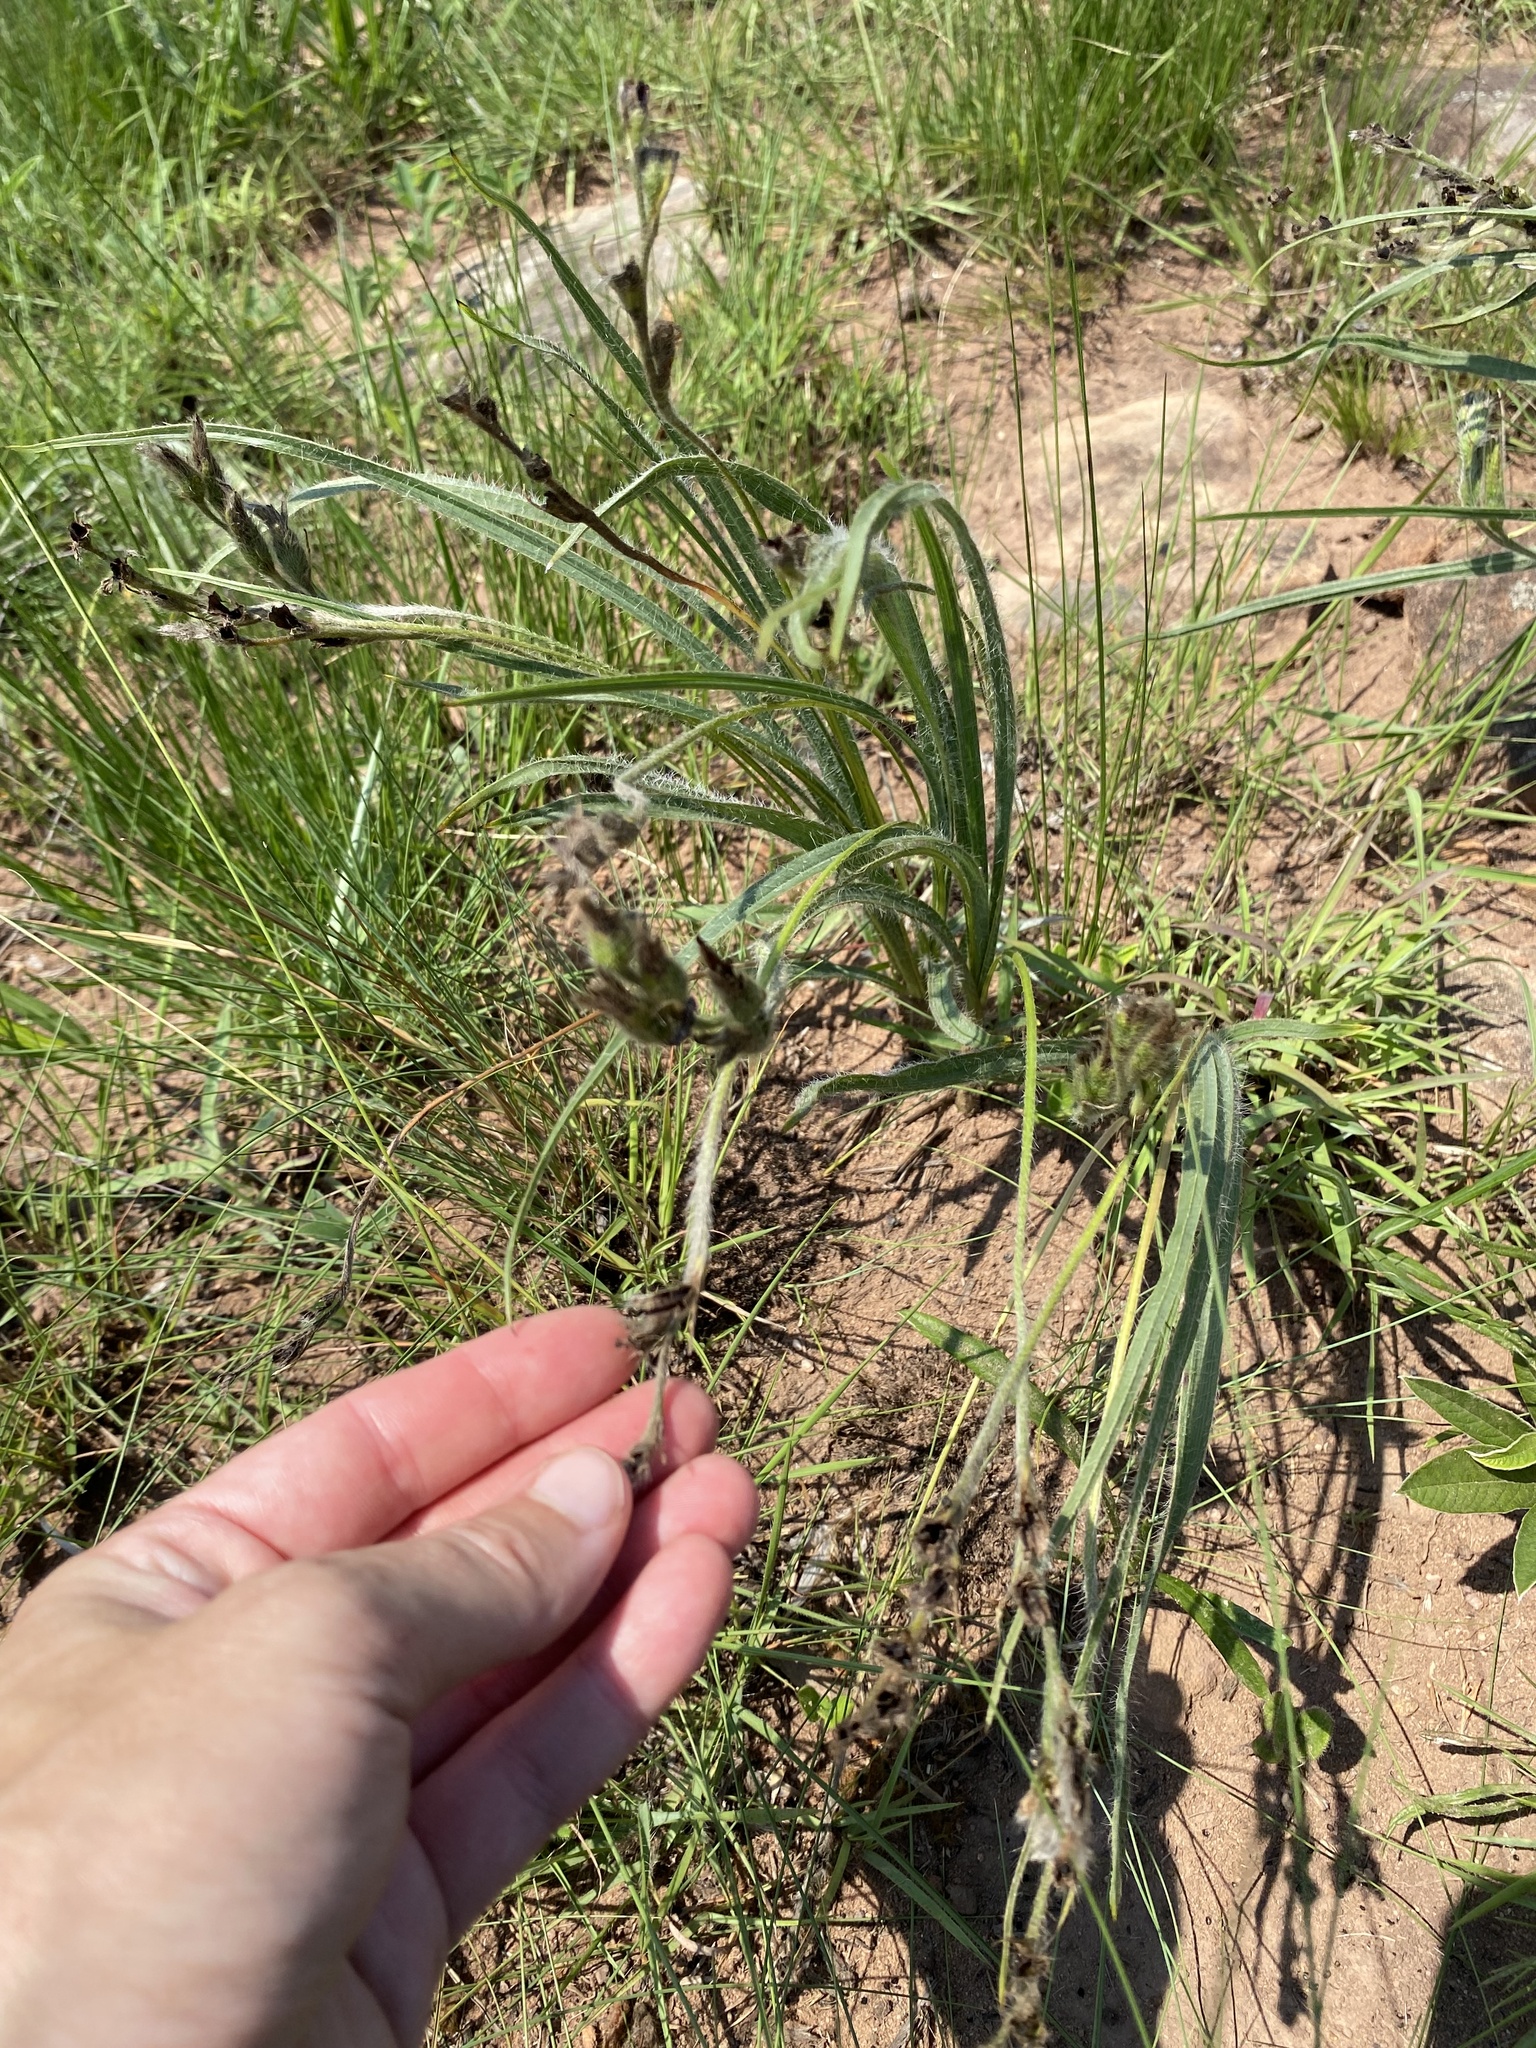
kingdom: Plantae
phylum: Tracheophyta
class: Liliopsida
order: Asparagales
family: Hypoxidaceae
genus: Hypoxis
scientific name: Hypoxis rigidula
